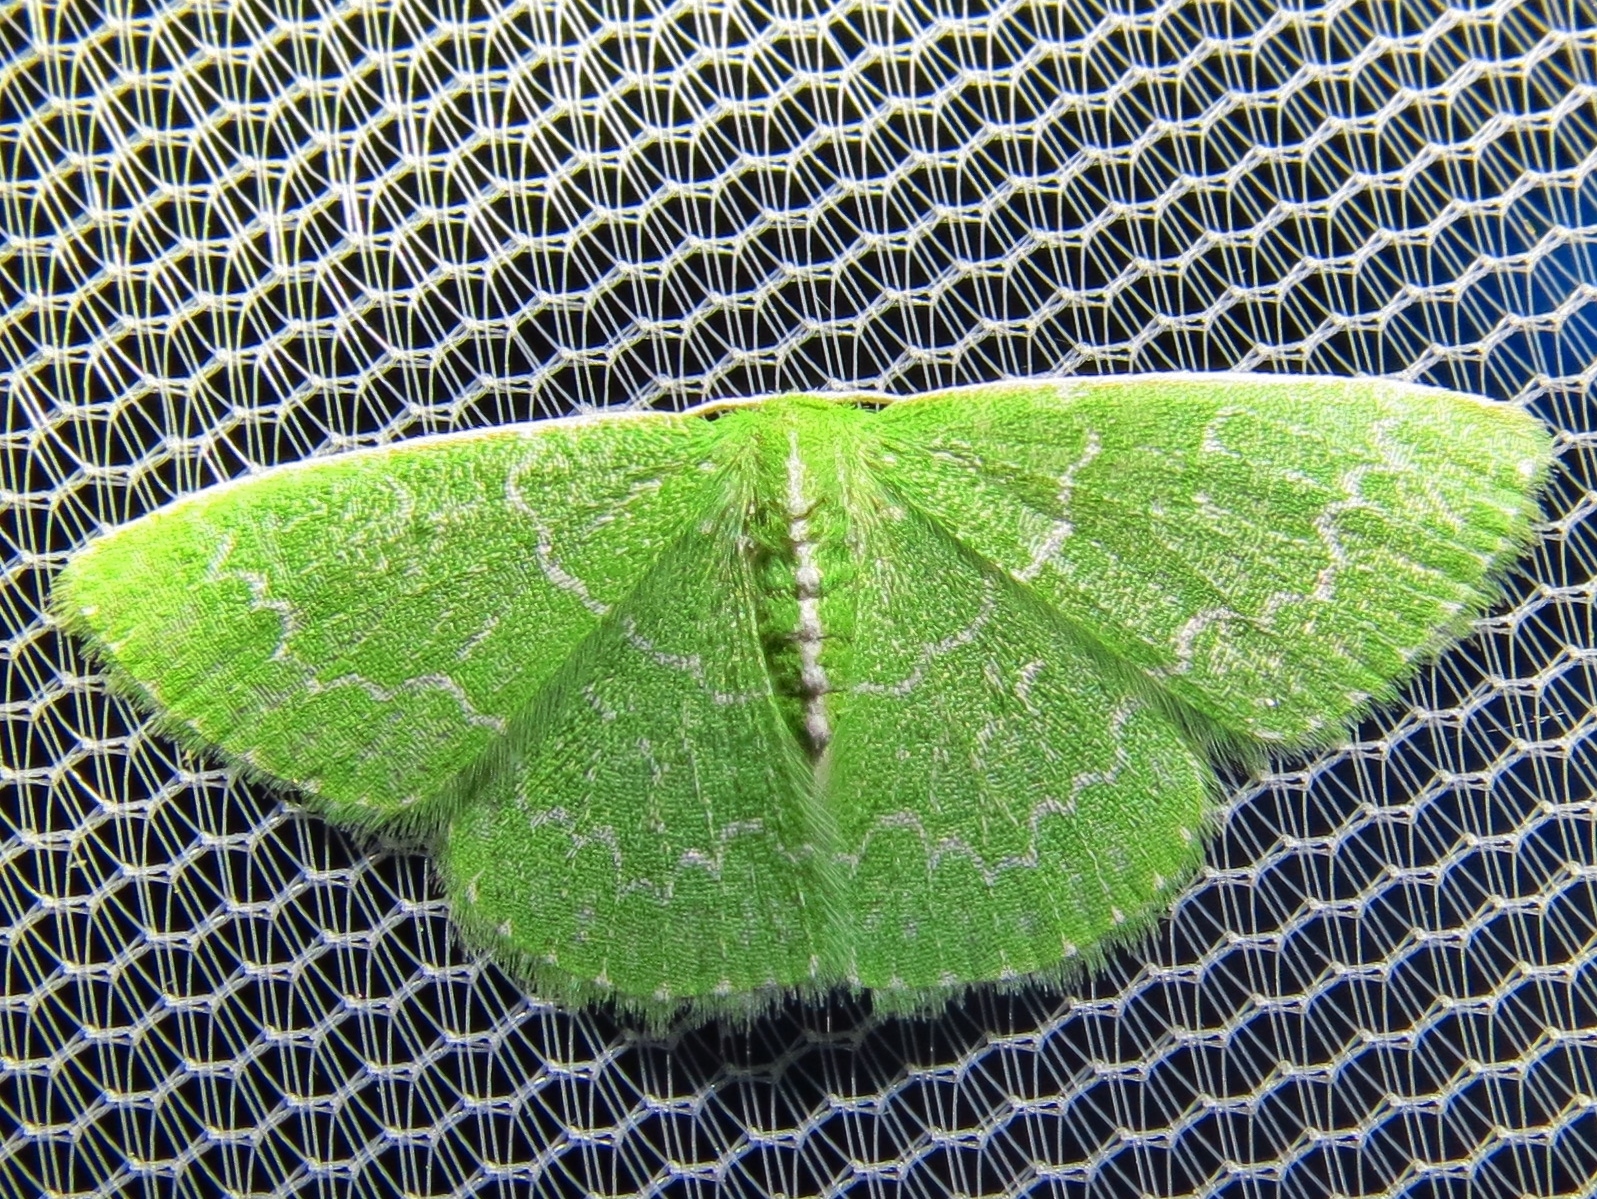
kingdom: Animalia
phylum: Arthropoda
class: Insecta
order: Lepidoptera
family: Geometridae
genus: Synchlora
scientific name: Synchlora frondaria
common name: Southern emerald
